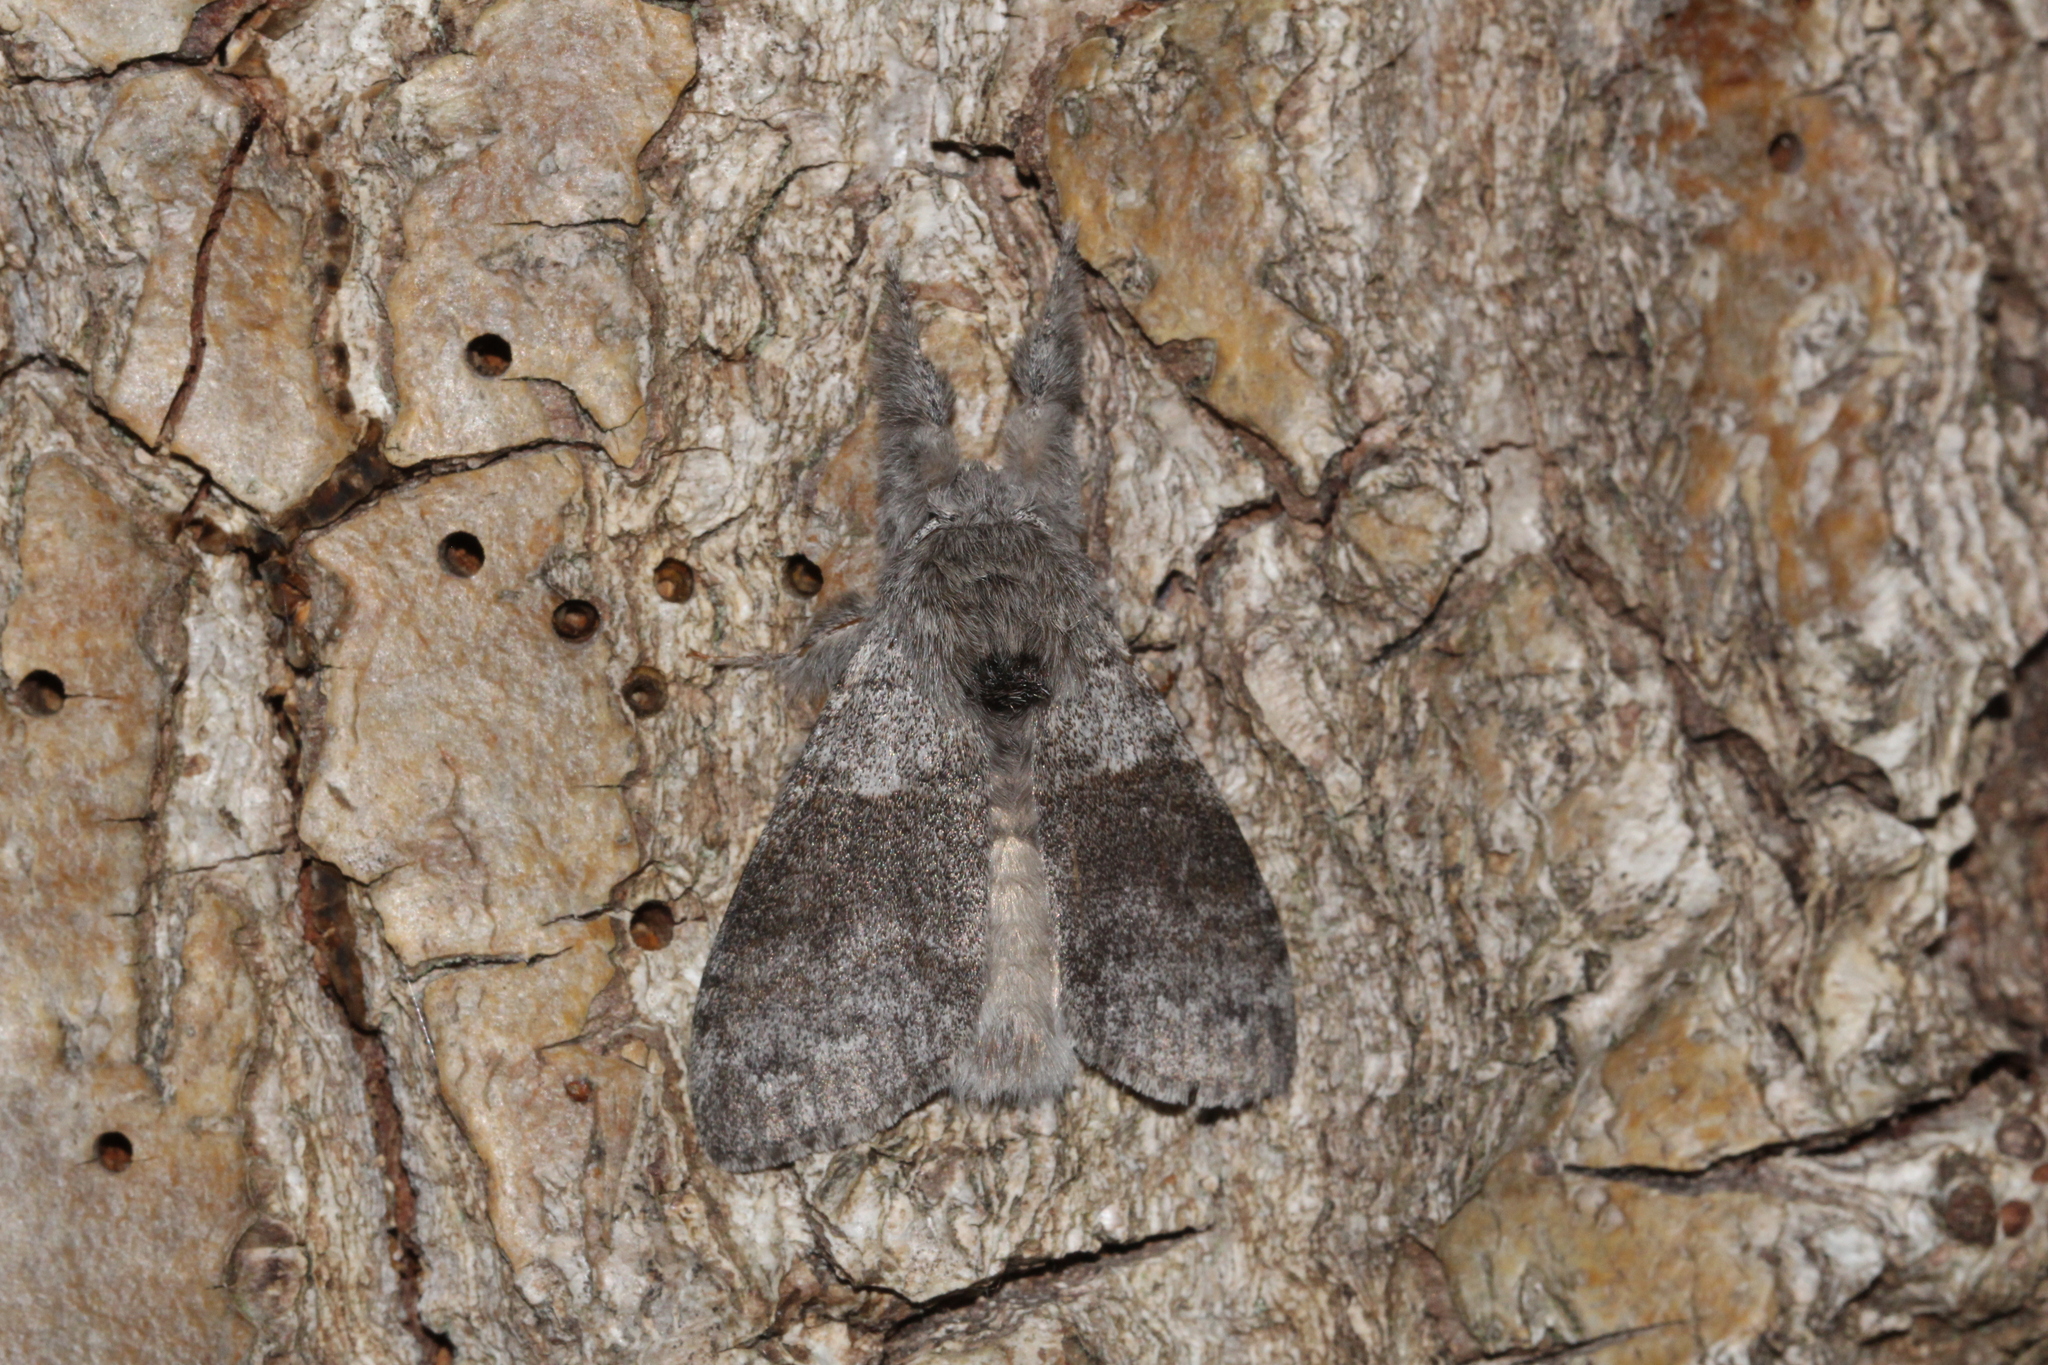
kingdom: Animalia
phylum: Arthropoda
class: Insecta
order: Lepidoptera
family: Erebidae
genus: Calliteara
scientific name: Calliteara pudibunda
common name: Pale tussock
